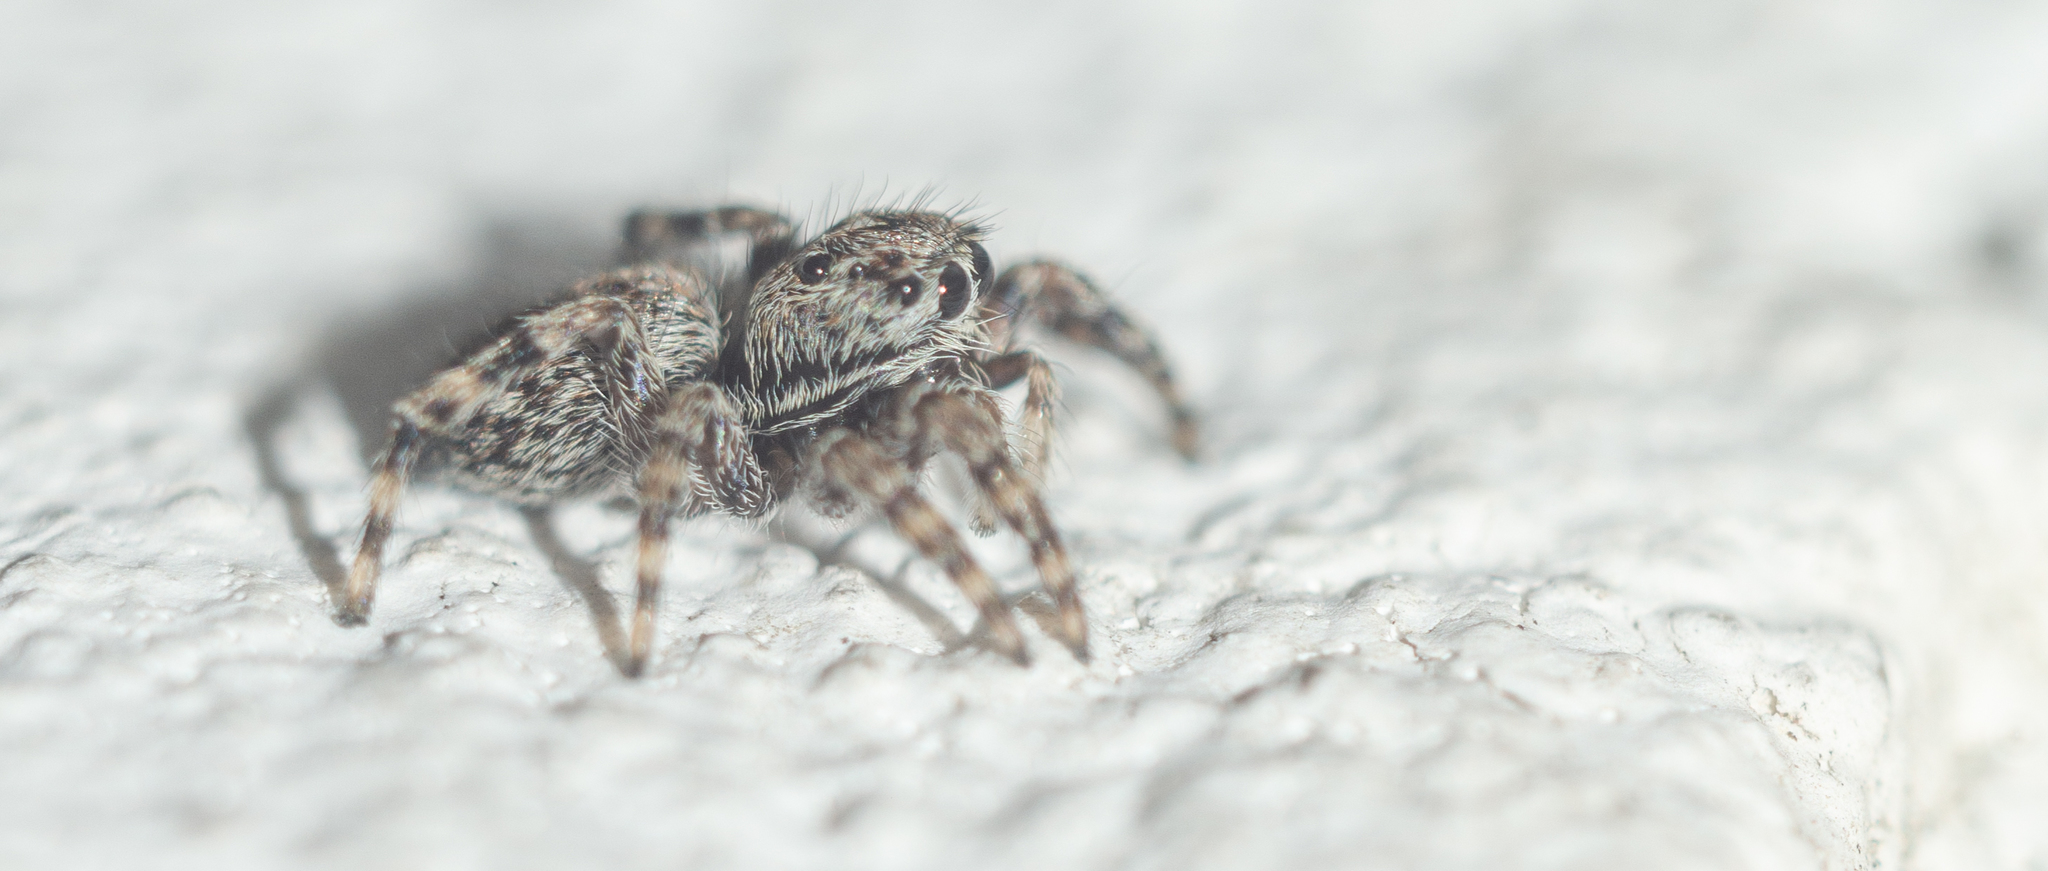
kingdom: Animalia
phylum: Arthropoda
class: Arachnida
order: Araneae
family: Salticidae
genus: Attulus
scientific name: Attulus pubescens
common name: Jumping spider
